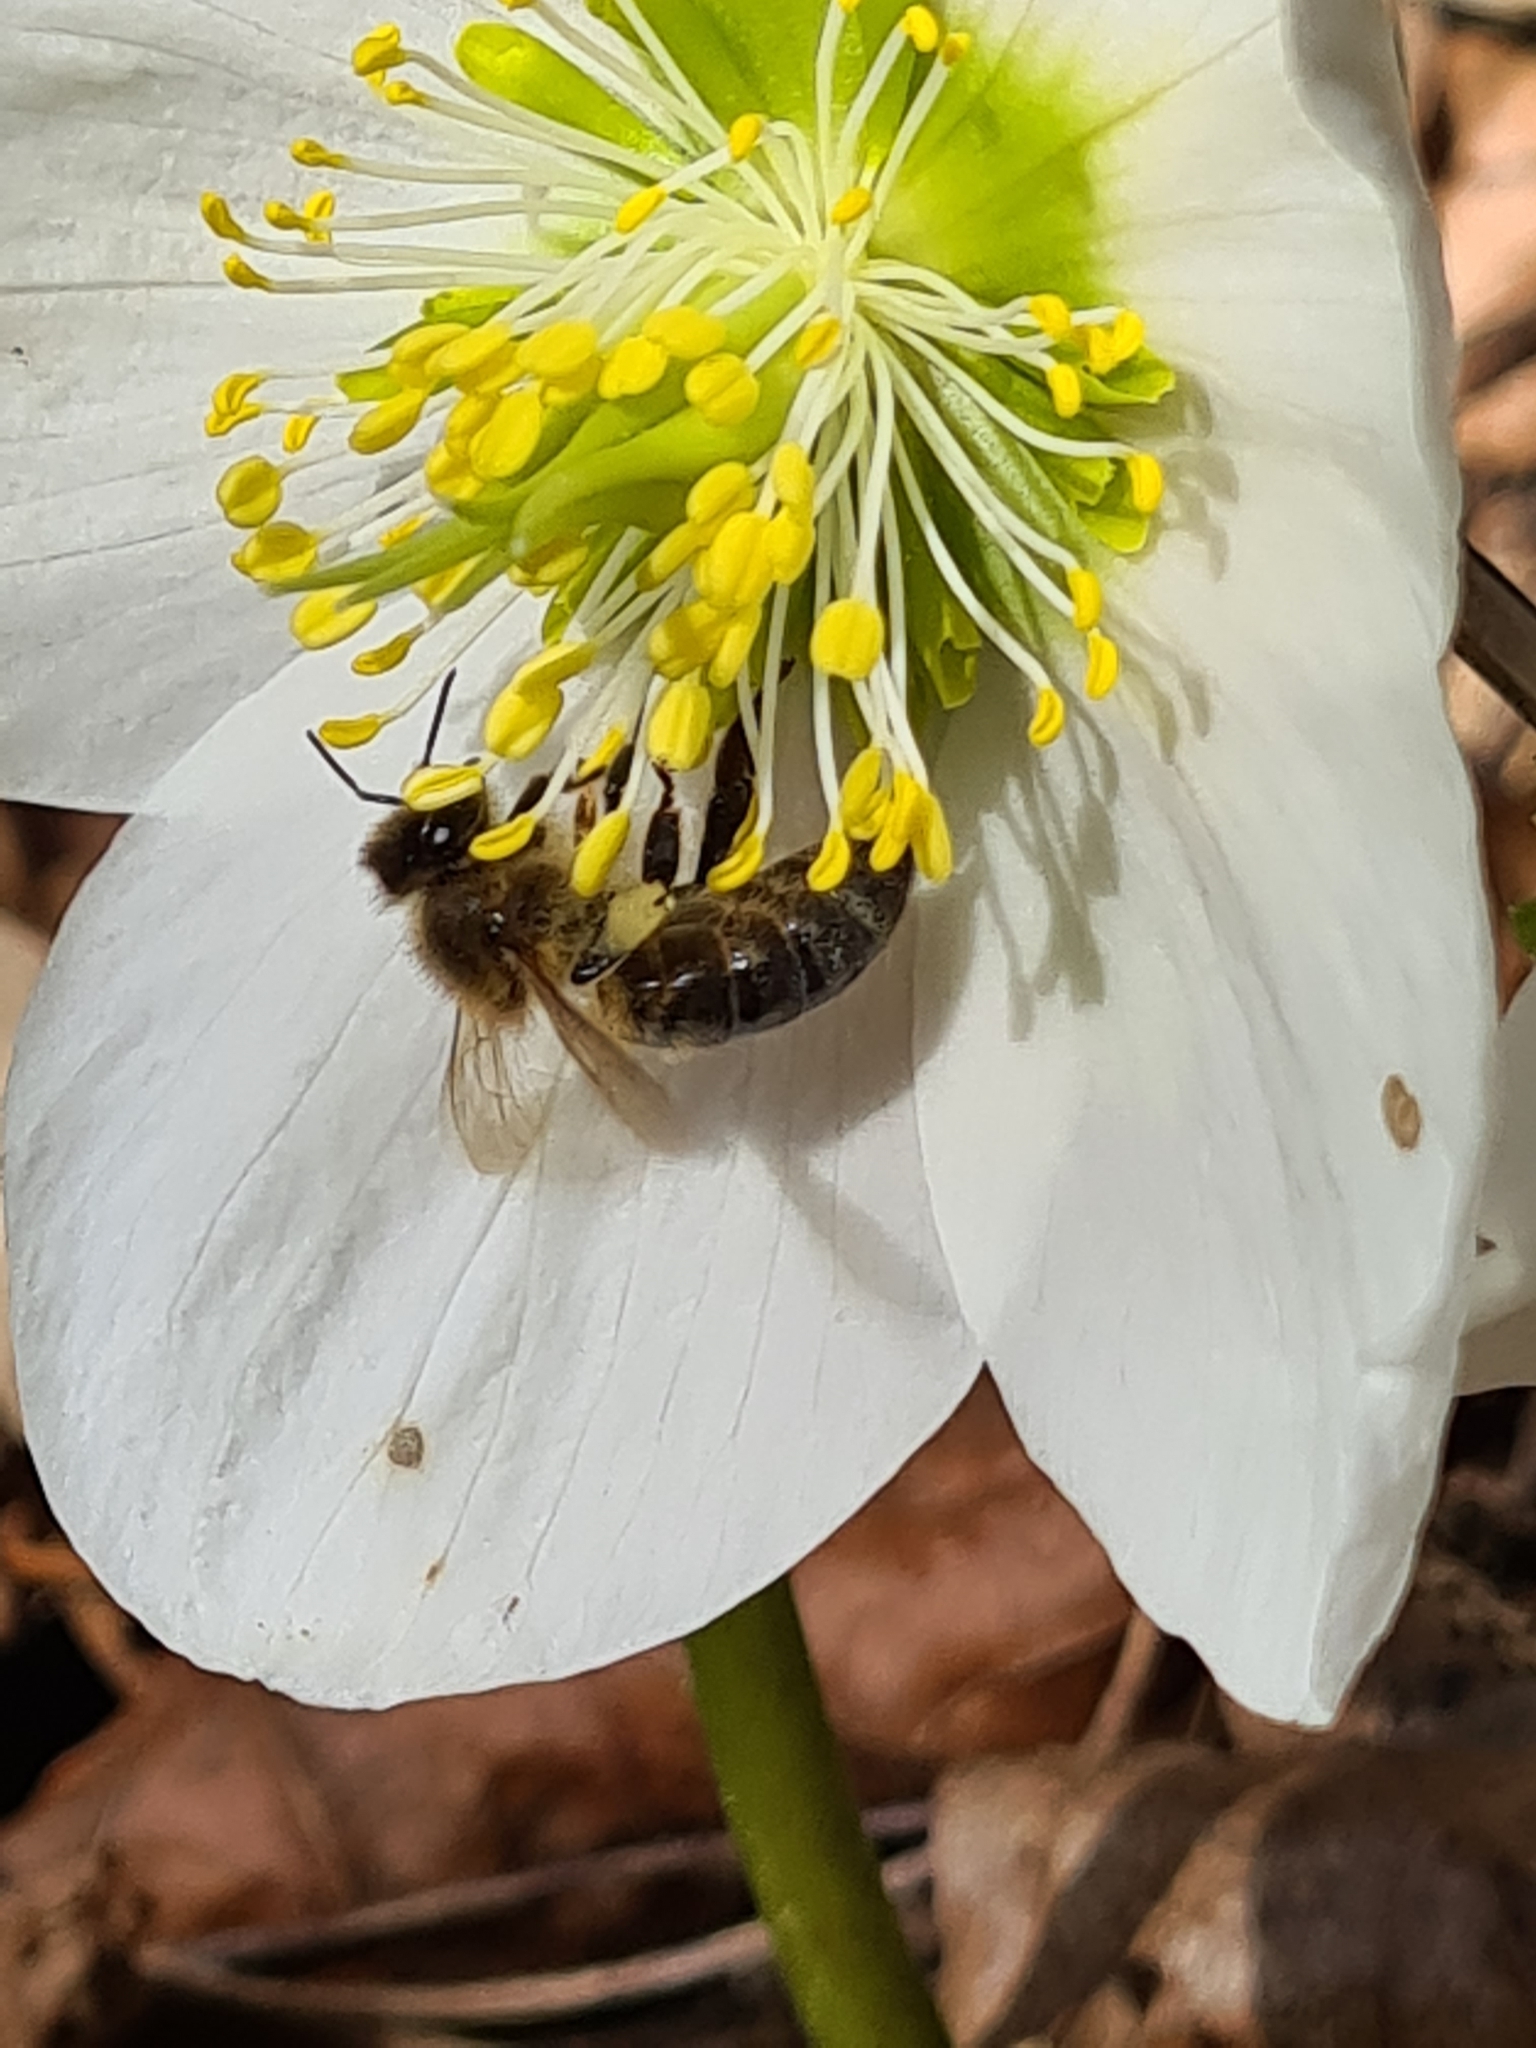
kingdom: Animalia
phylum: Arthropoda
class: Insecta
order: Hymenoptera
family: Apidae
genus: Apis
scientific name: Apis mellifera
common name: Honey bee
